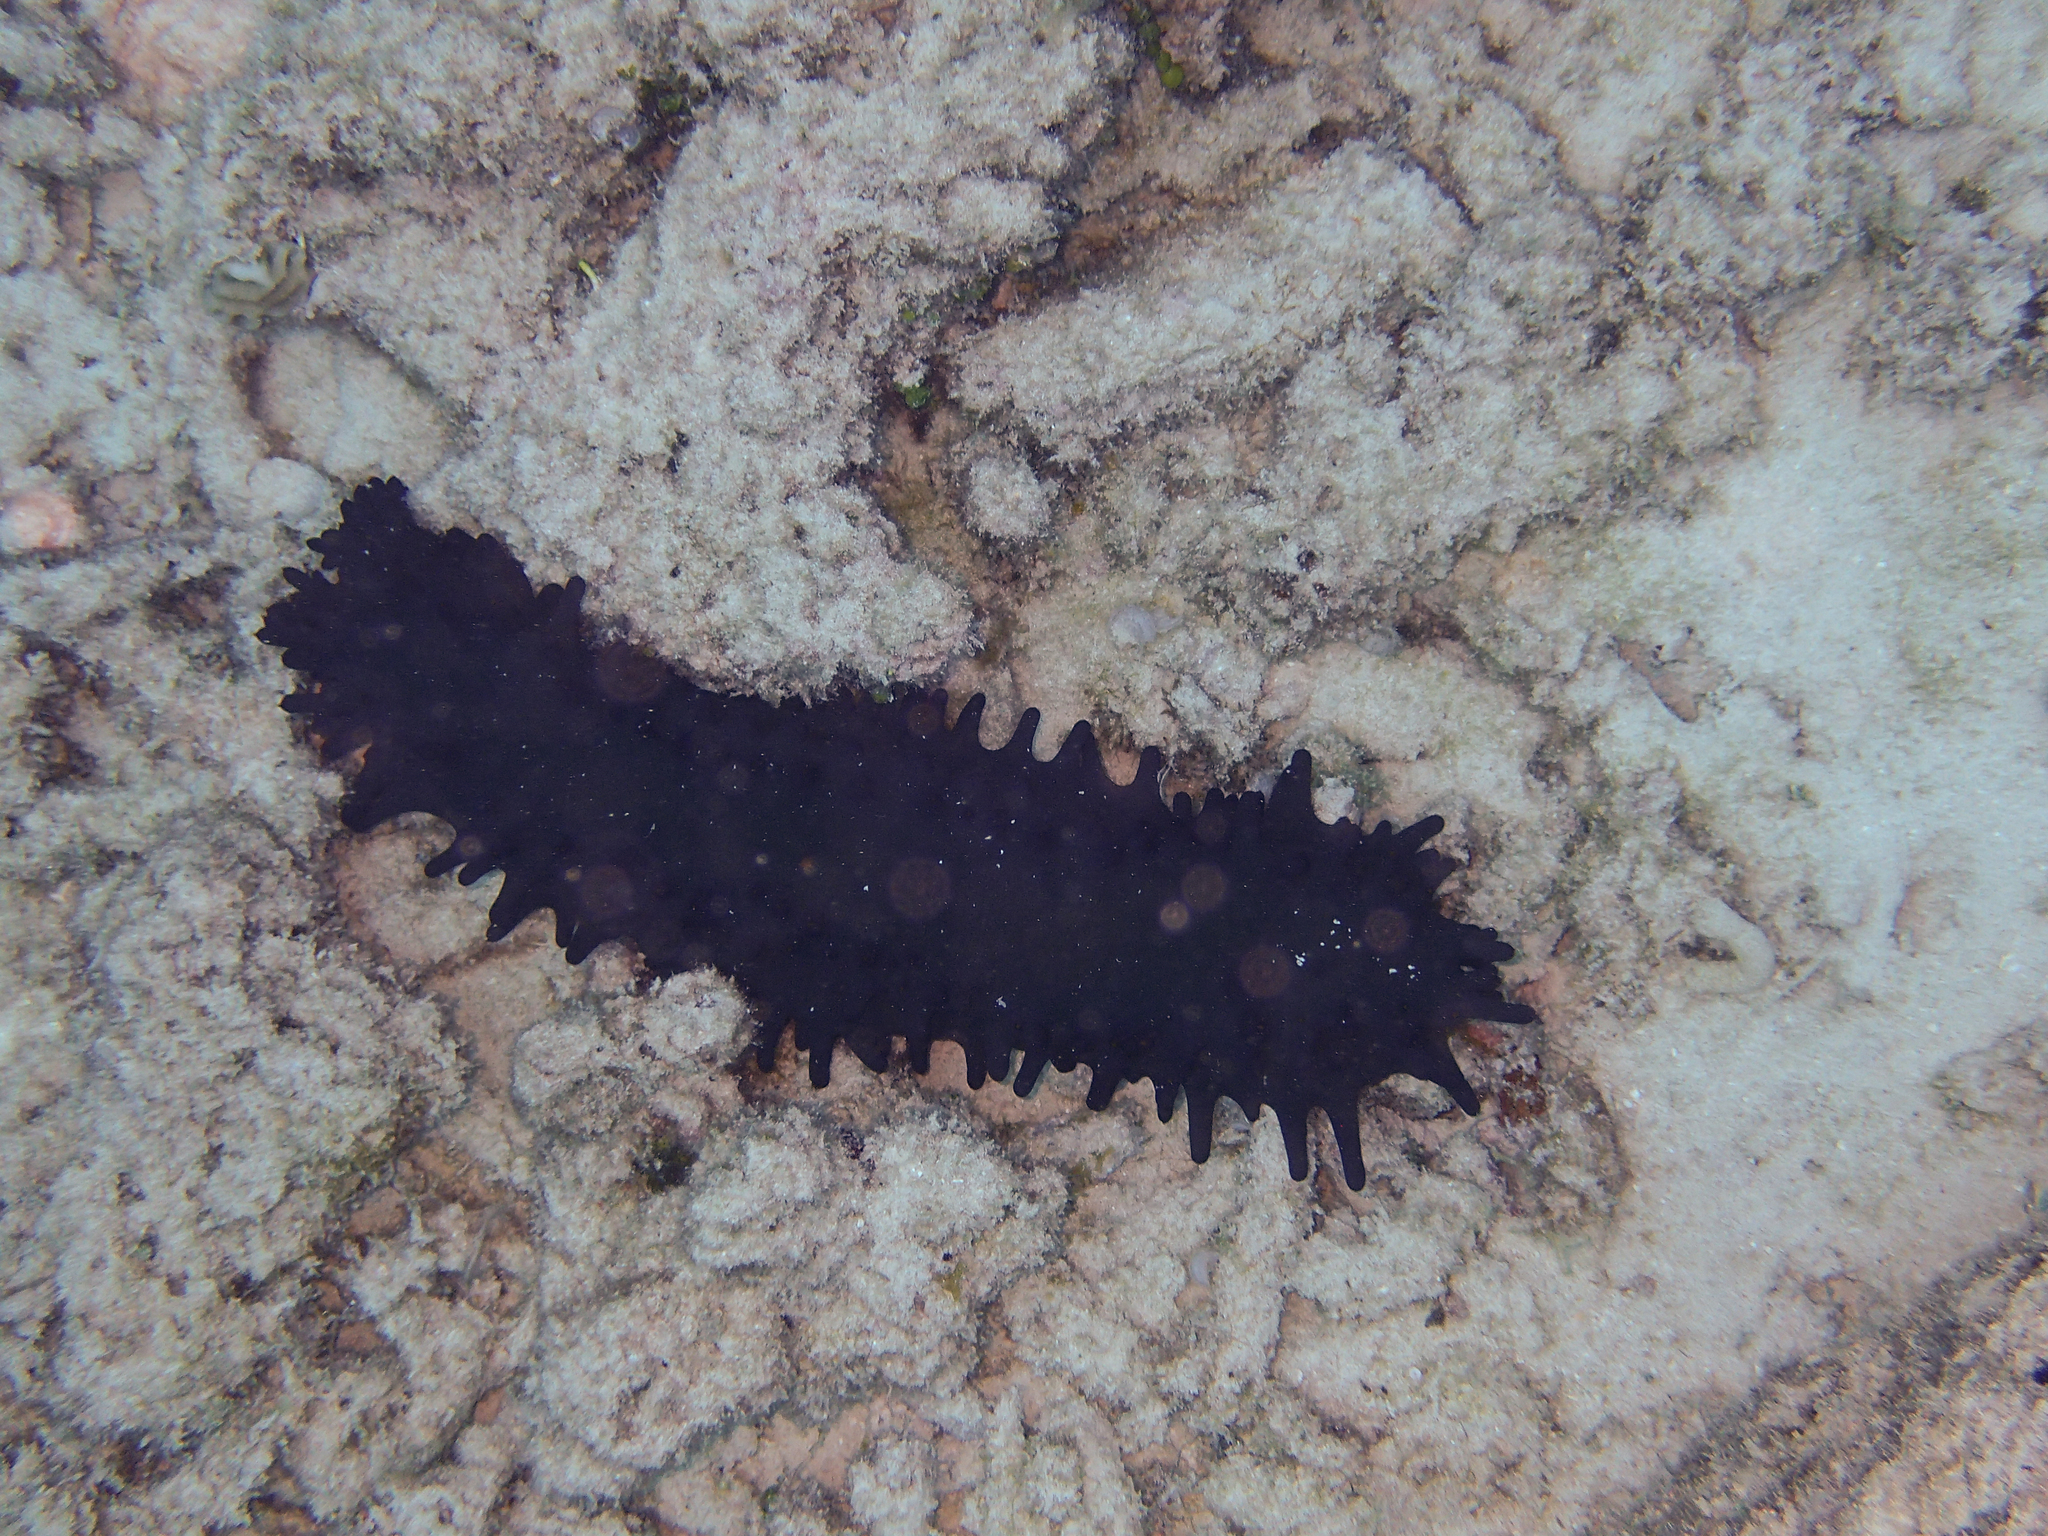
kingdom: Animalia
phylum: Echinodermata
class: Holothuroidea
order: Synallactida
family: Stichopodidae
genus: Stichopus
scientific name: Stichopus chloronotus
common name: Greenfish
